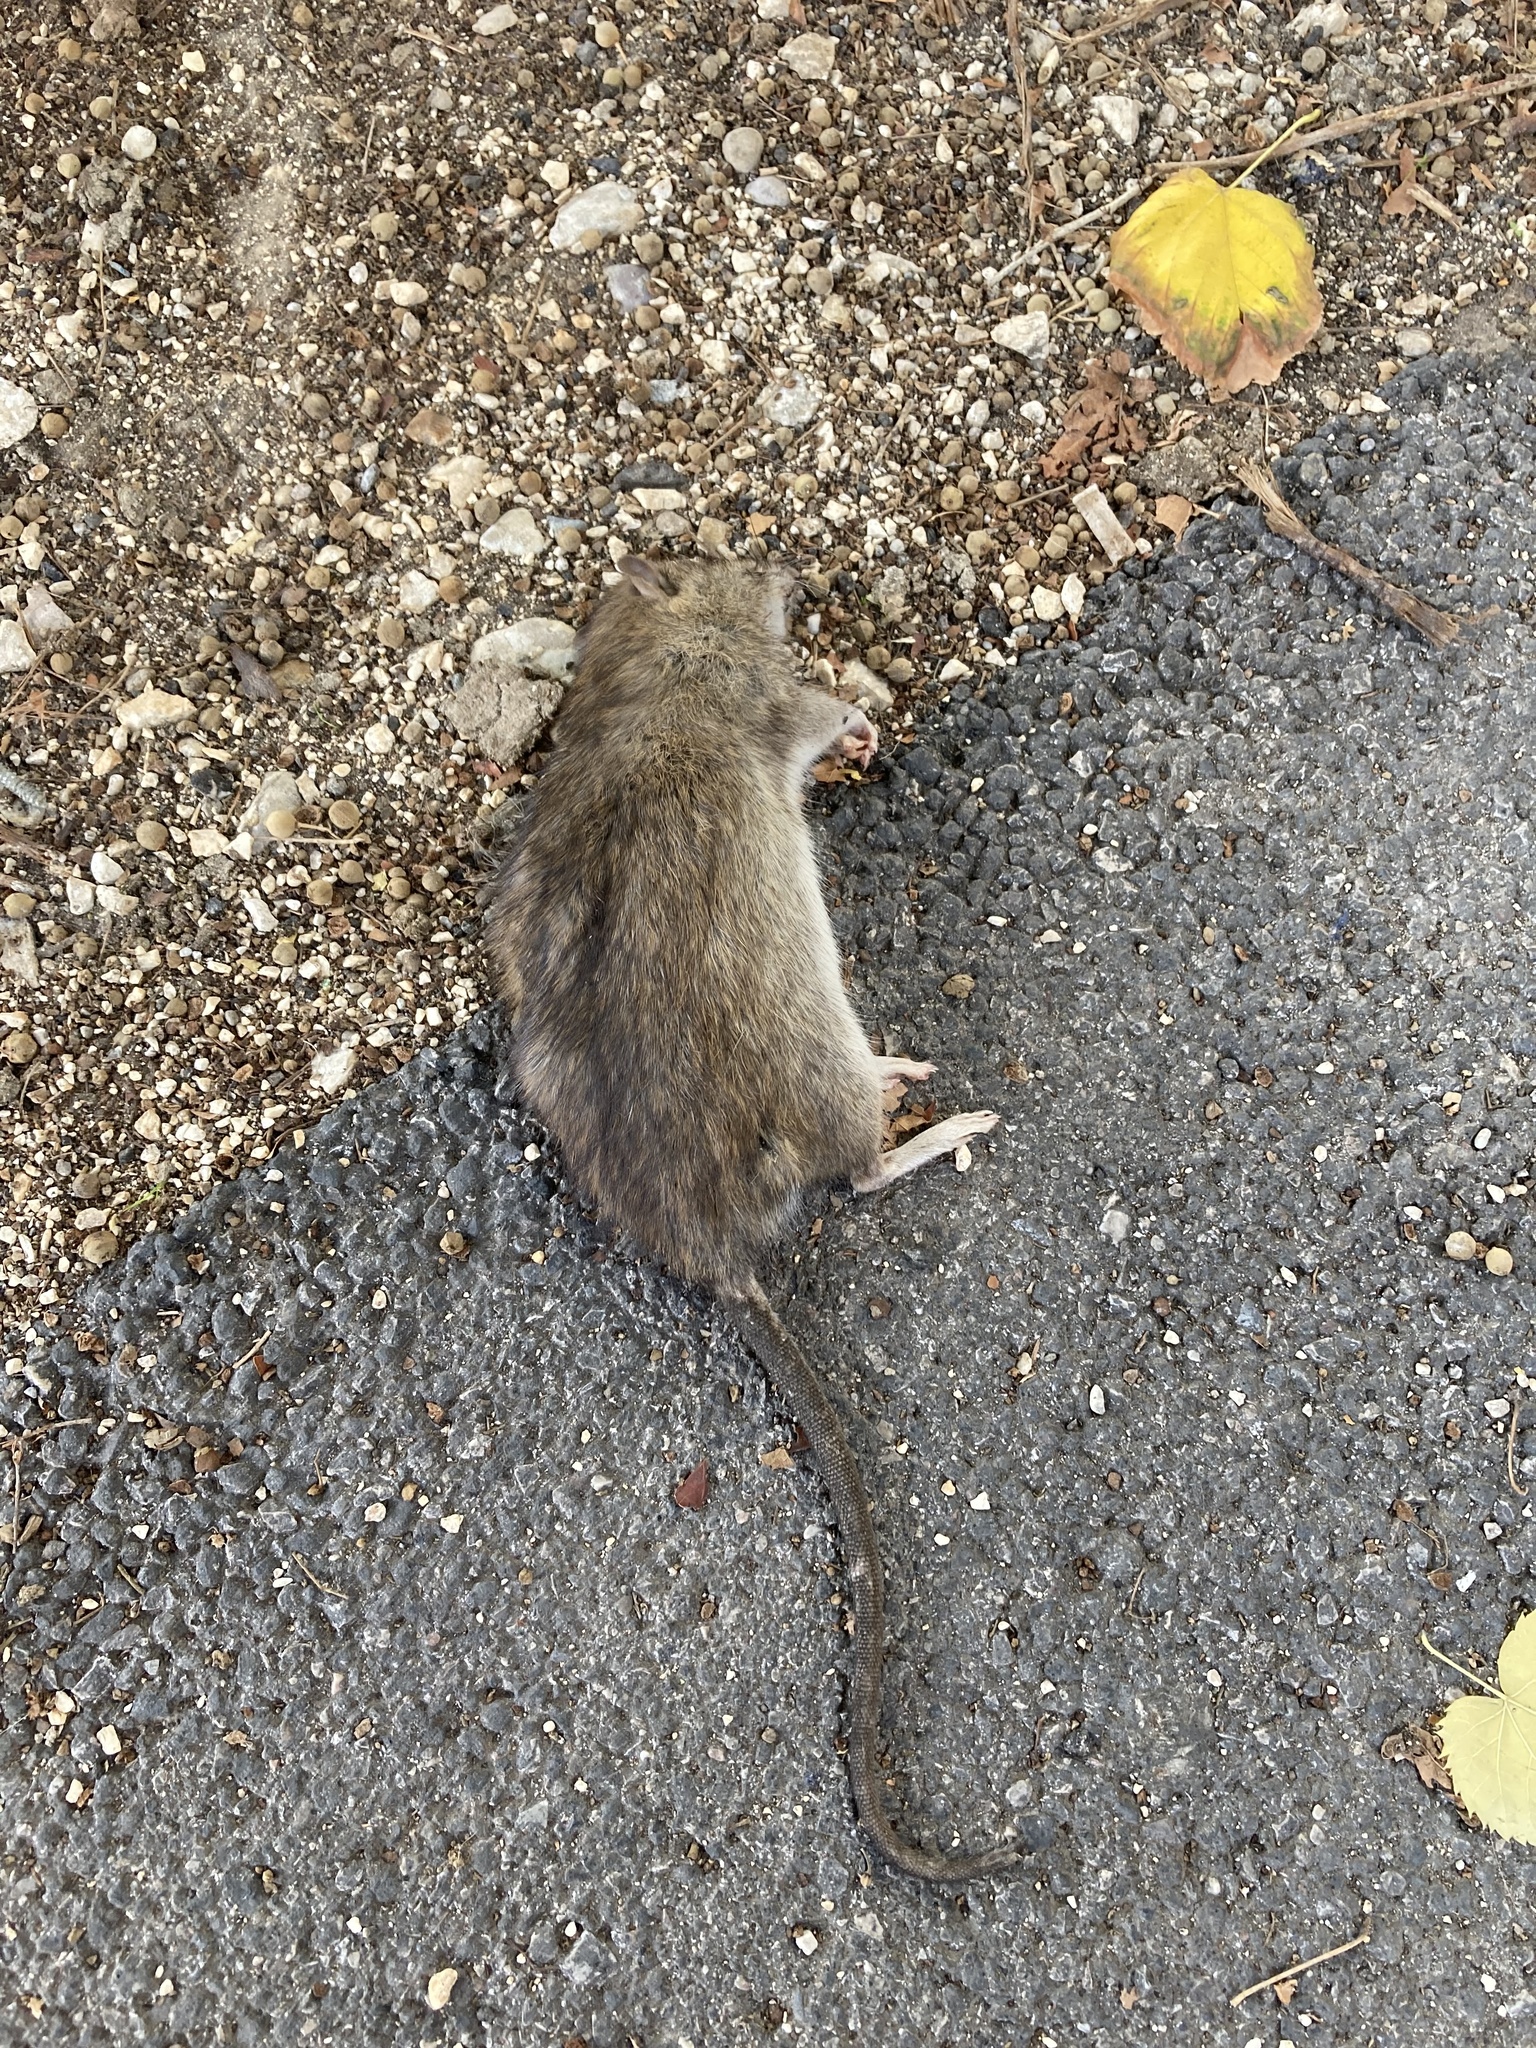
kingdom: Animalia
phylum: Chordata
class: Mammalia
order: Rodentia
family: Muridae
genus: Rattus
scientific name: Rattus norvegicus
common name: Brown rat
